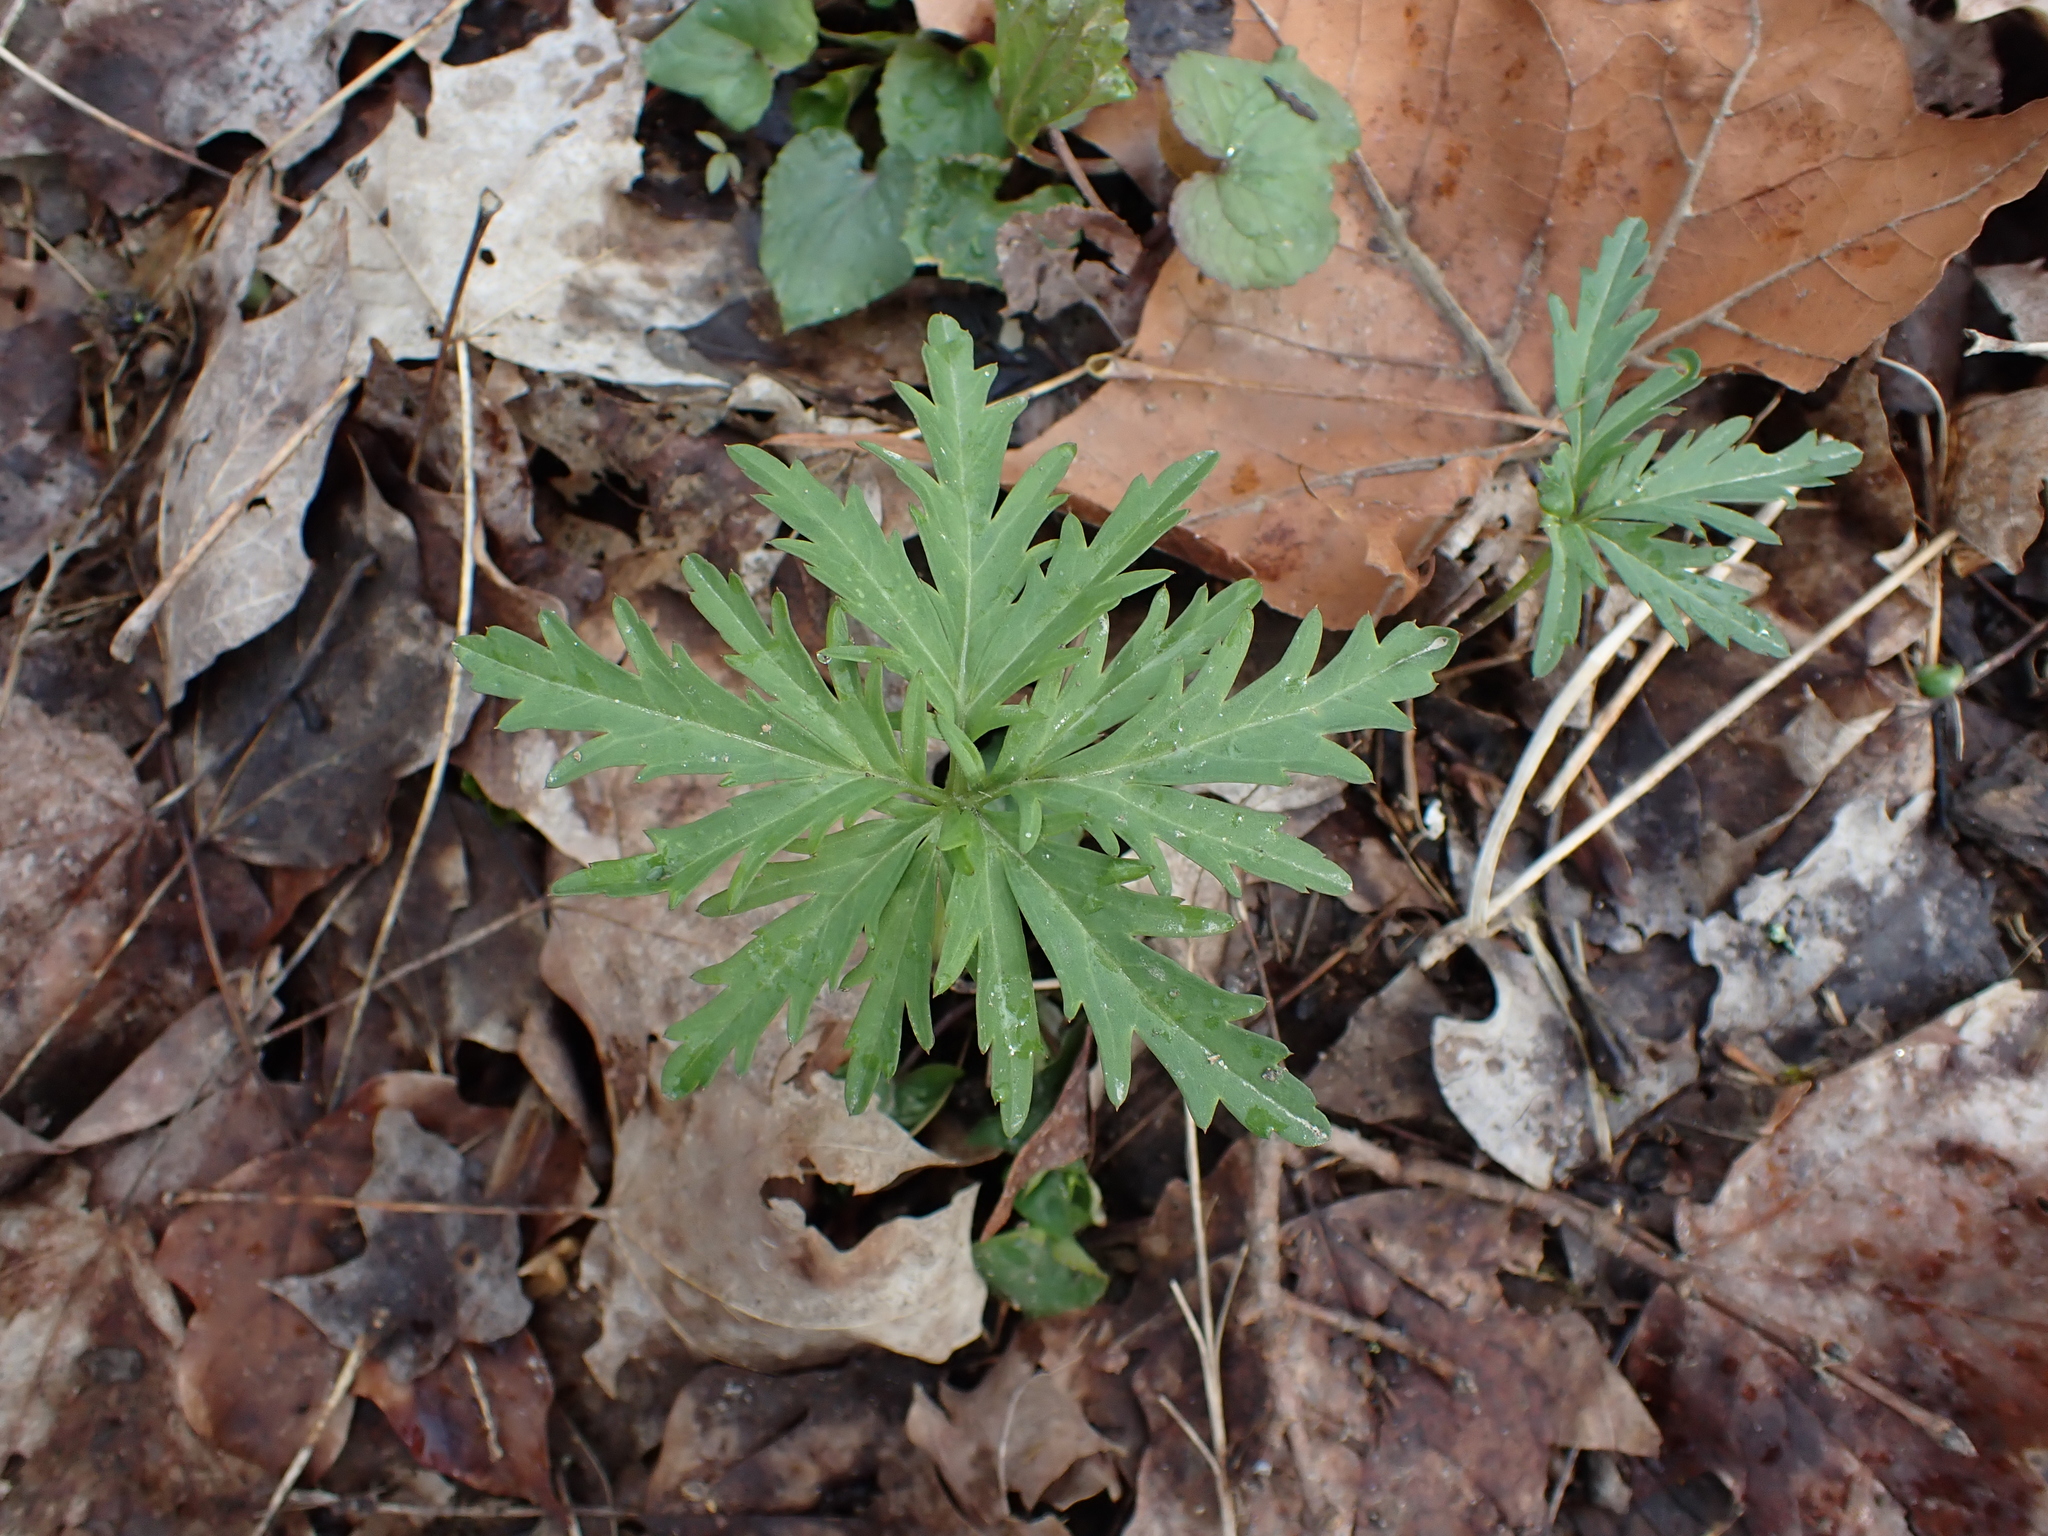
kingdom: Plantae
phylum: Tracheophyta
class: Magnoliopsida
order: Brassicales
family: Brassicaceae
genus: Cardamine
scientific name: Cardamine concatenata
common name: Cut-leaf toothcup
